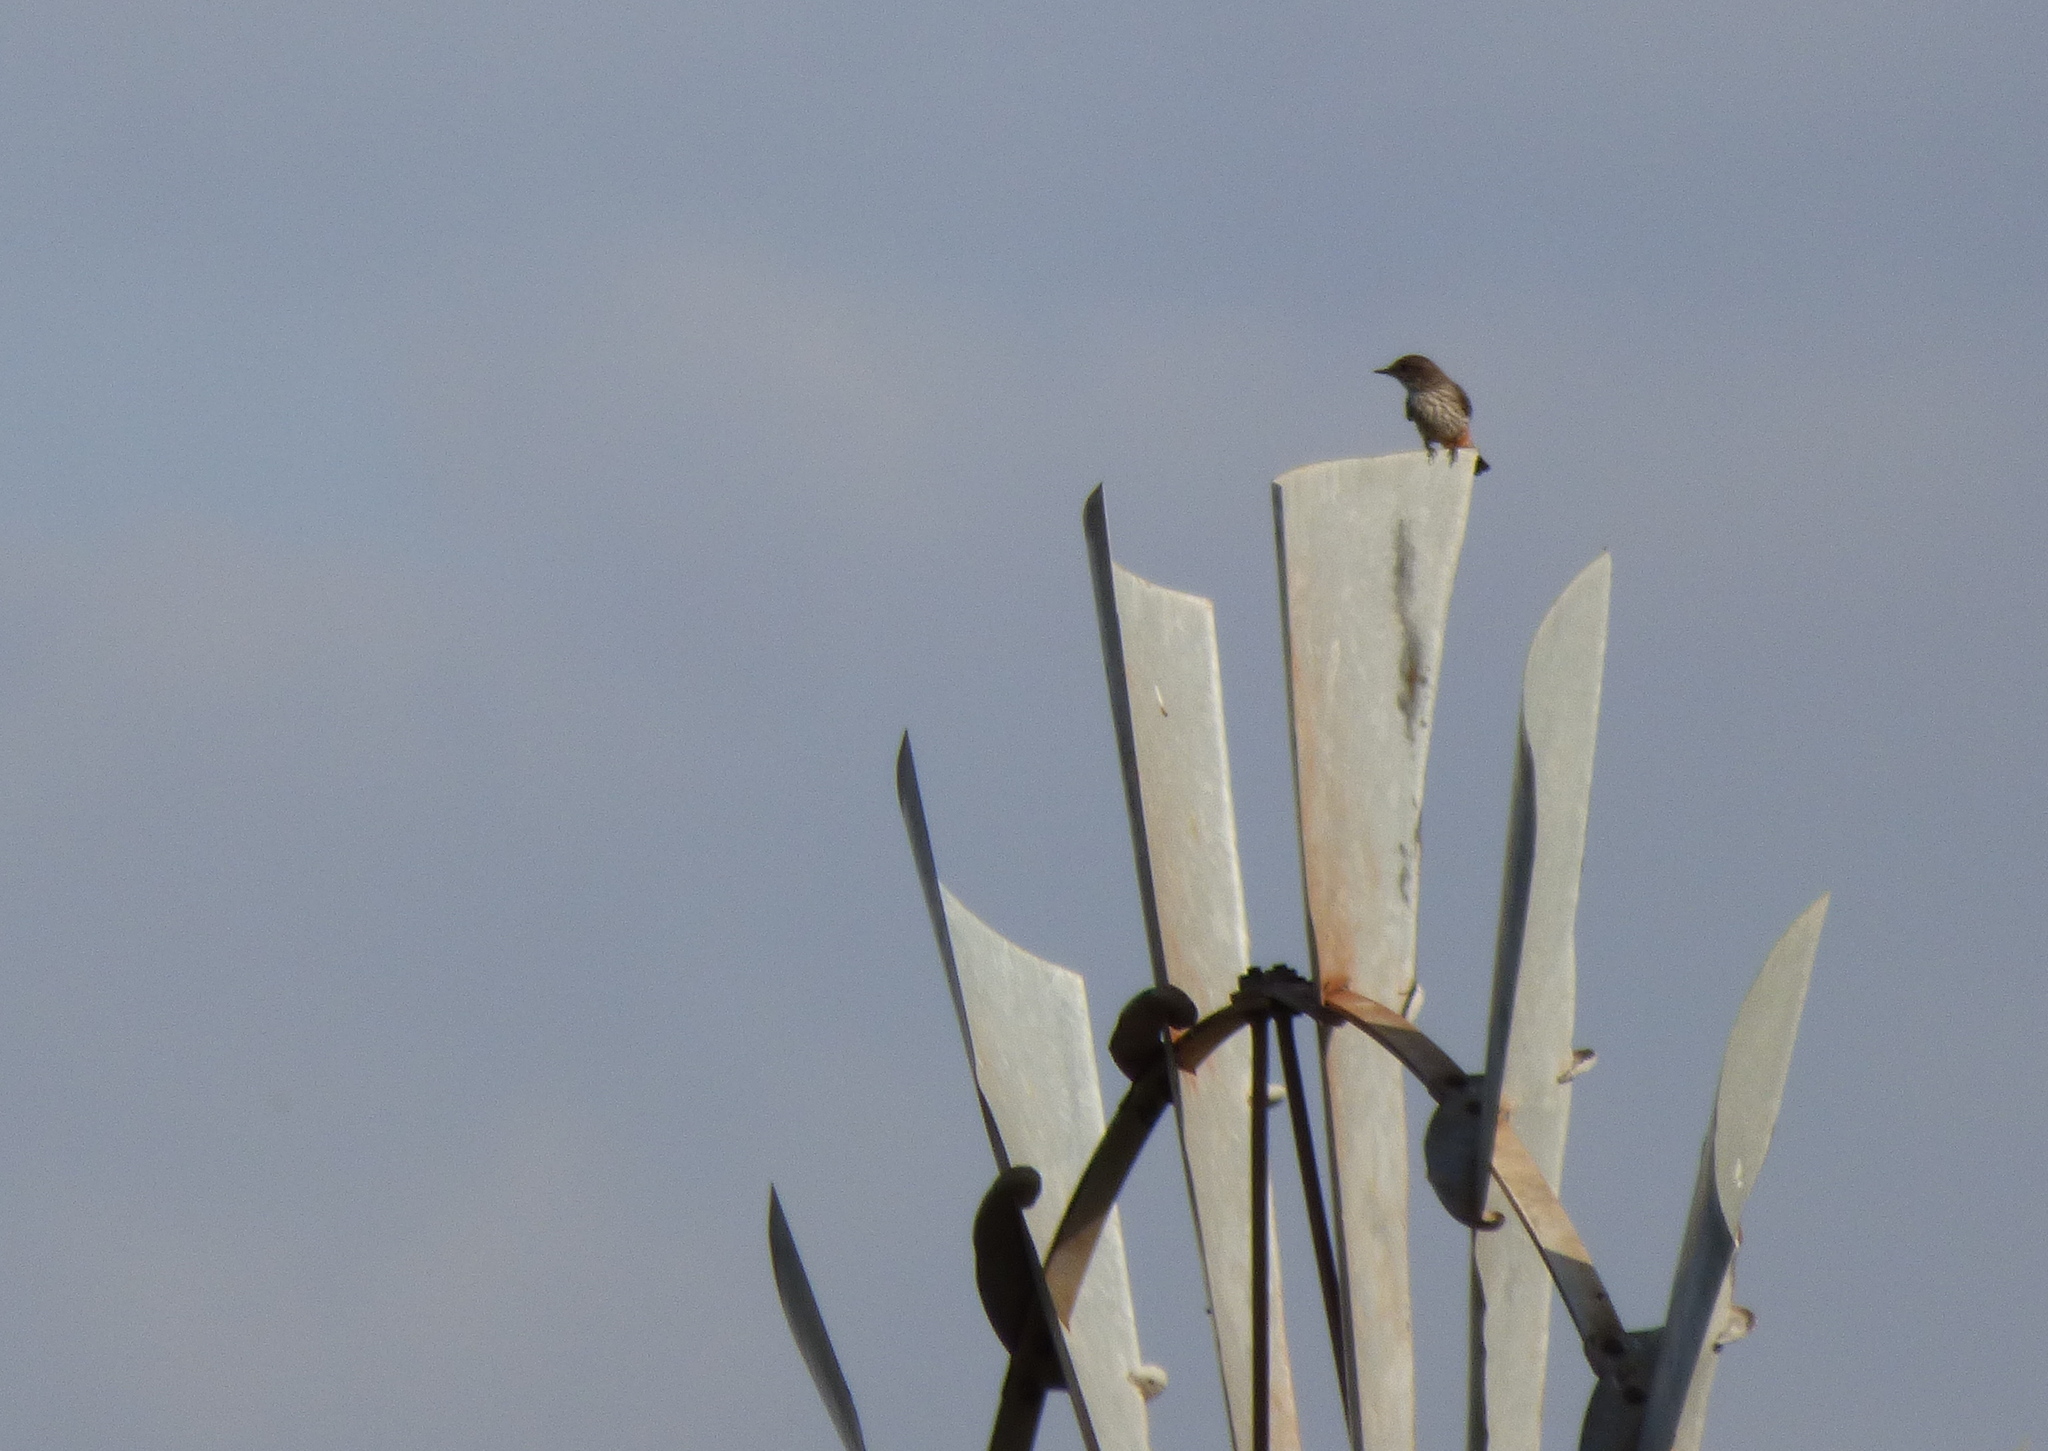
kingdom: Animalia
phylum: Chordata
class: Aves
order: Passeriformes
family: Tyrannidae
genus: Pyrocephalus
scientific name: Pyrocephalus rubinus
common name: Vermilion flycatcher
